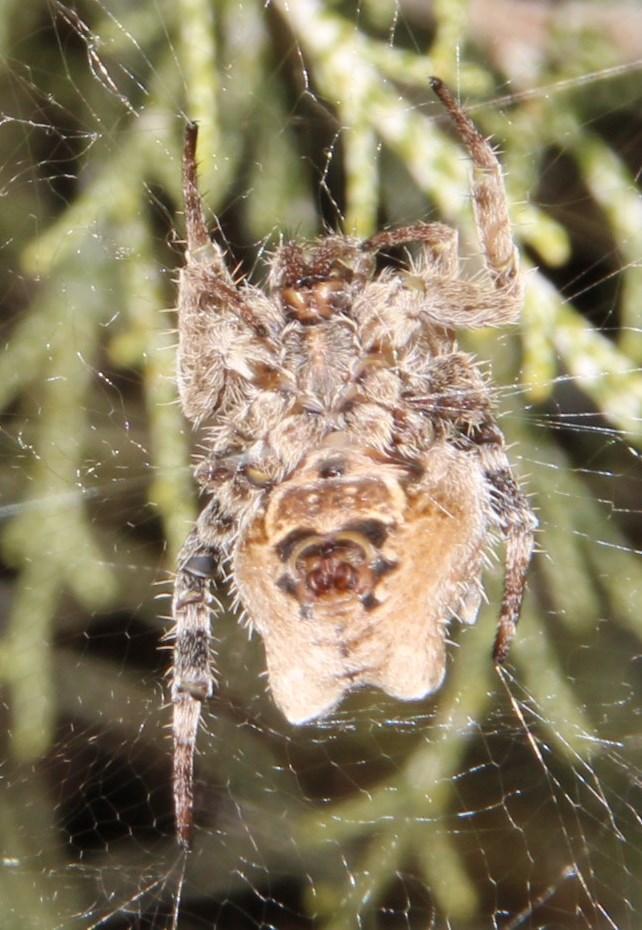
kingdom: Animalia
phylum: Arthropoda
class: Arachnida
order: Araneae
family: Araneidae
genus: Cyrtophora
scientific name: Cyrtophora citricola
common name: Orb weavers
